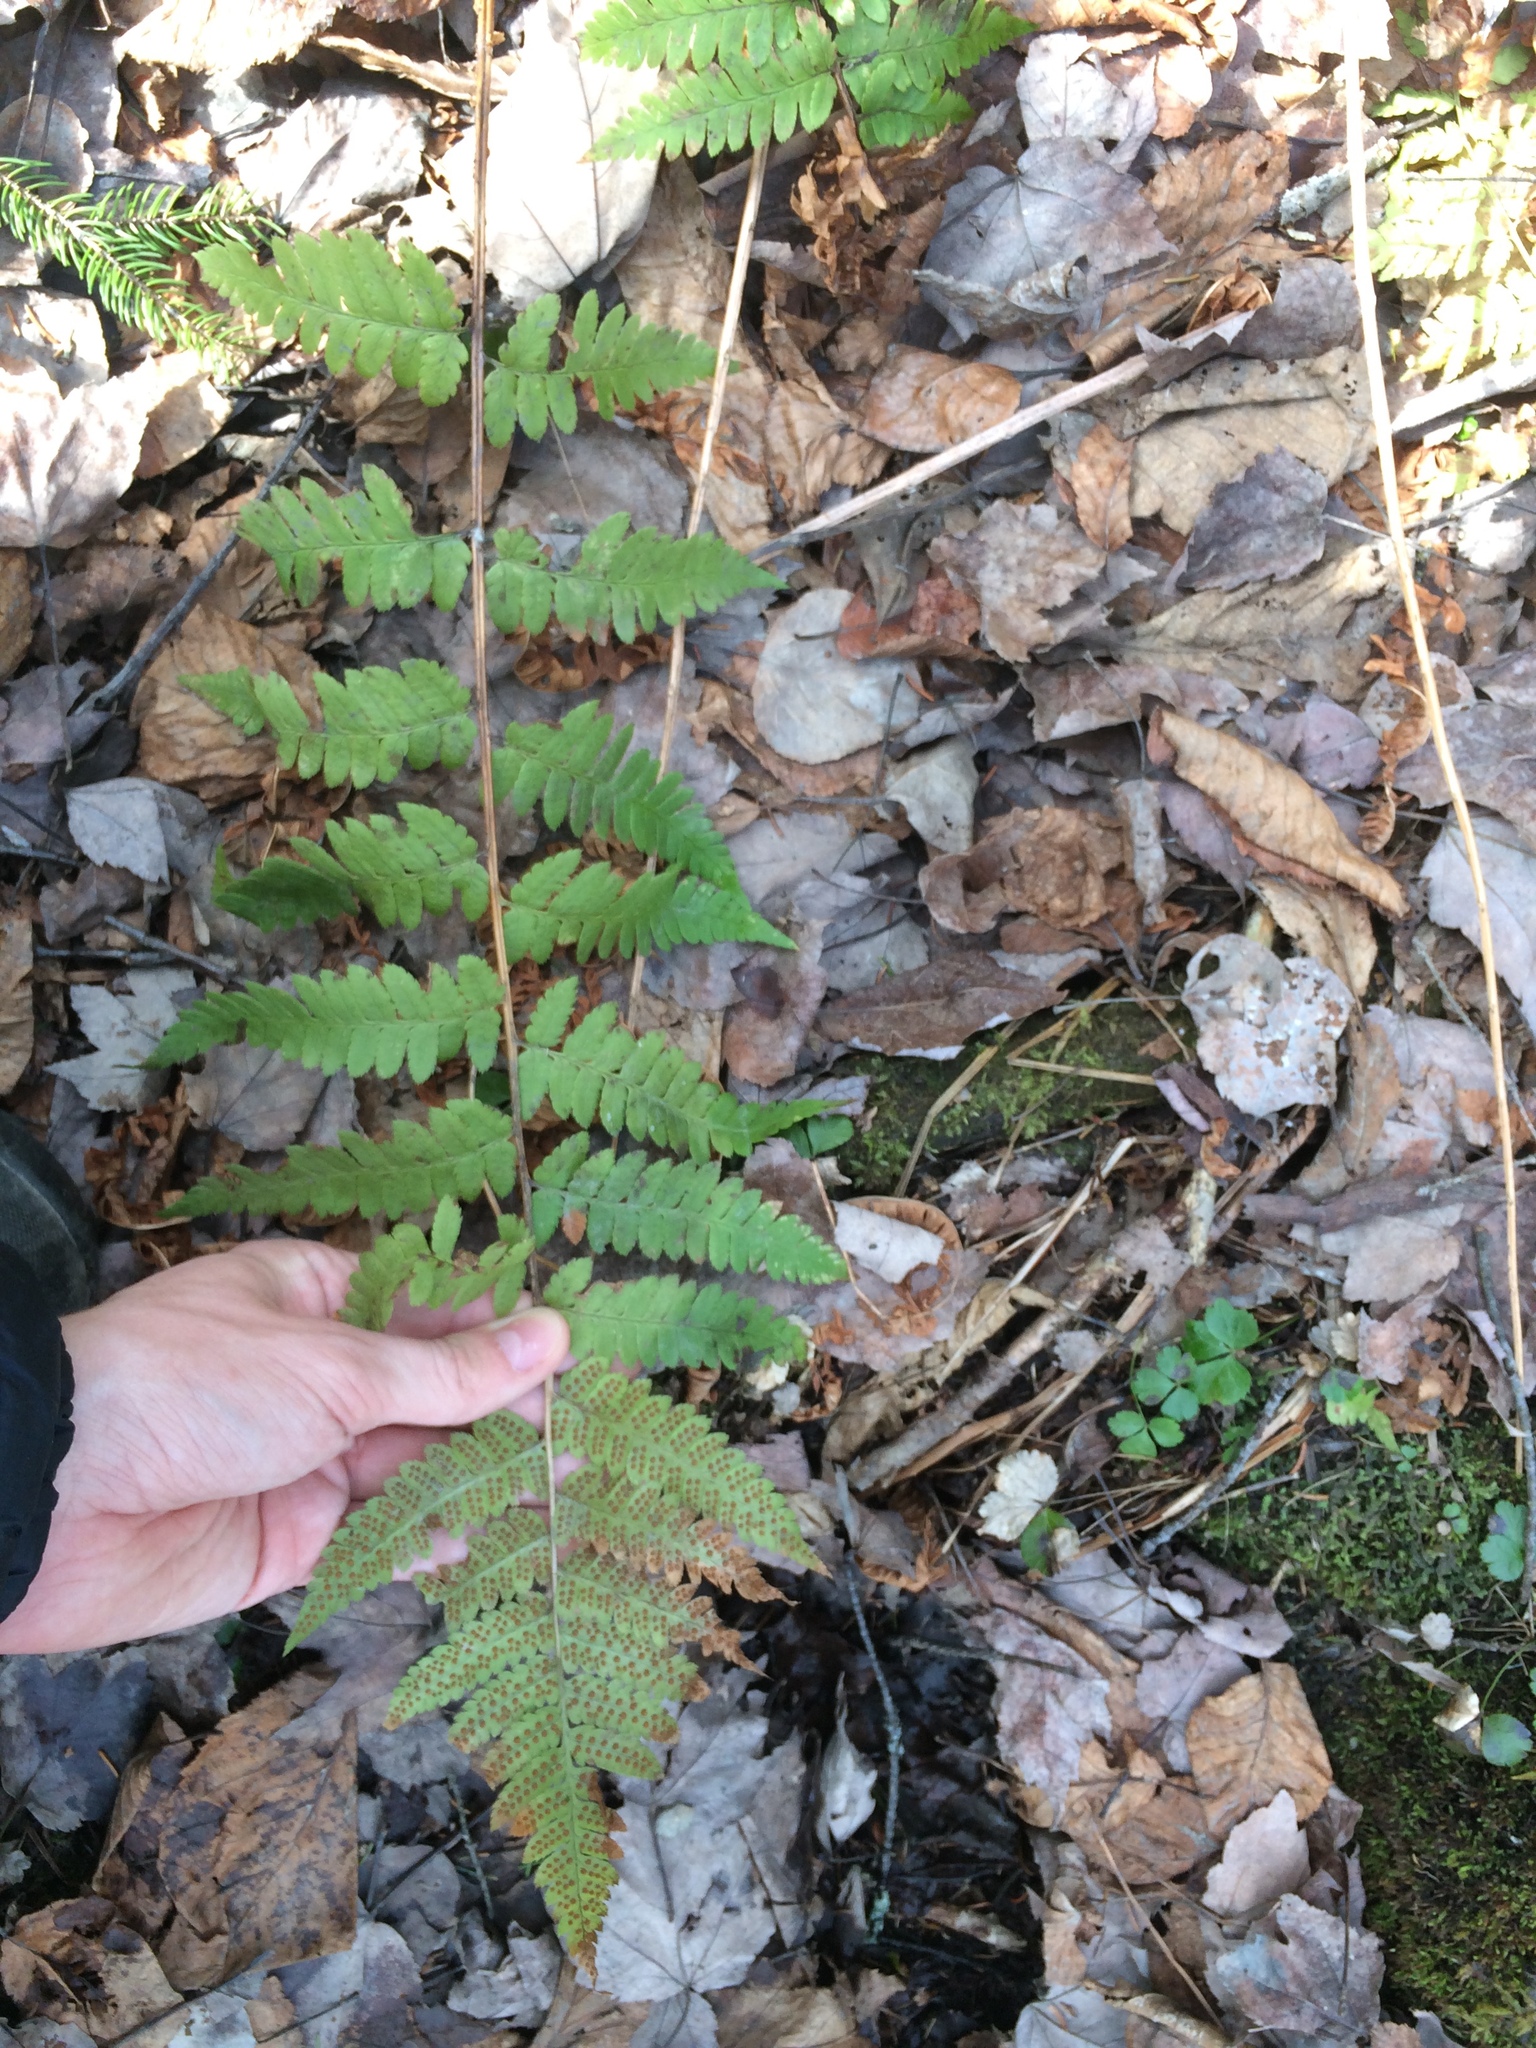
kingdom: Plantae
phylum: Tracheophyta
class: Polypodiopsida
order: Polypodiales
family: Dryopteridaceae
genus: Dryopteris
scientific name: Dryopteris boottii
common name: Boott's fern
